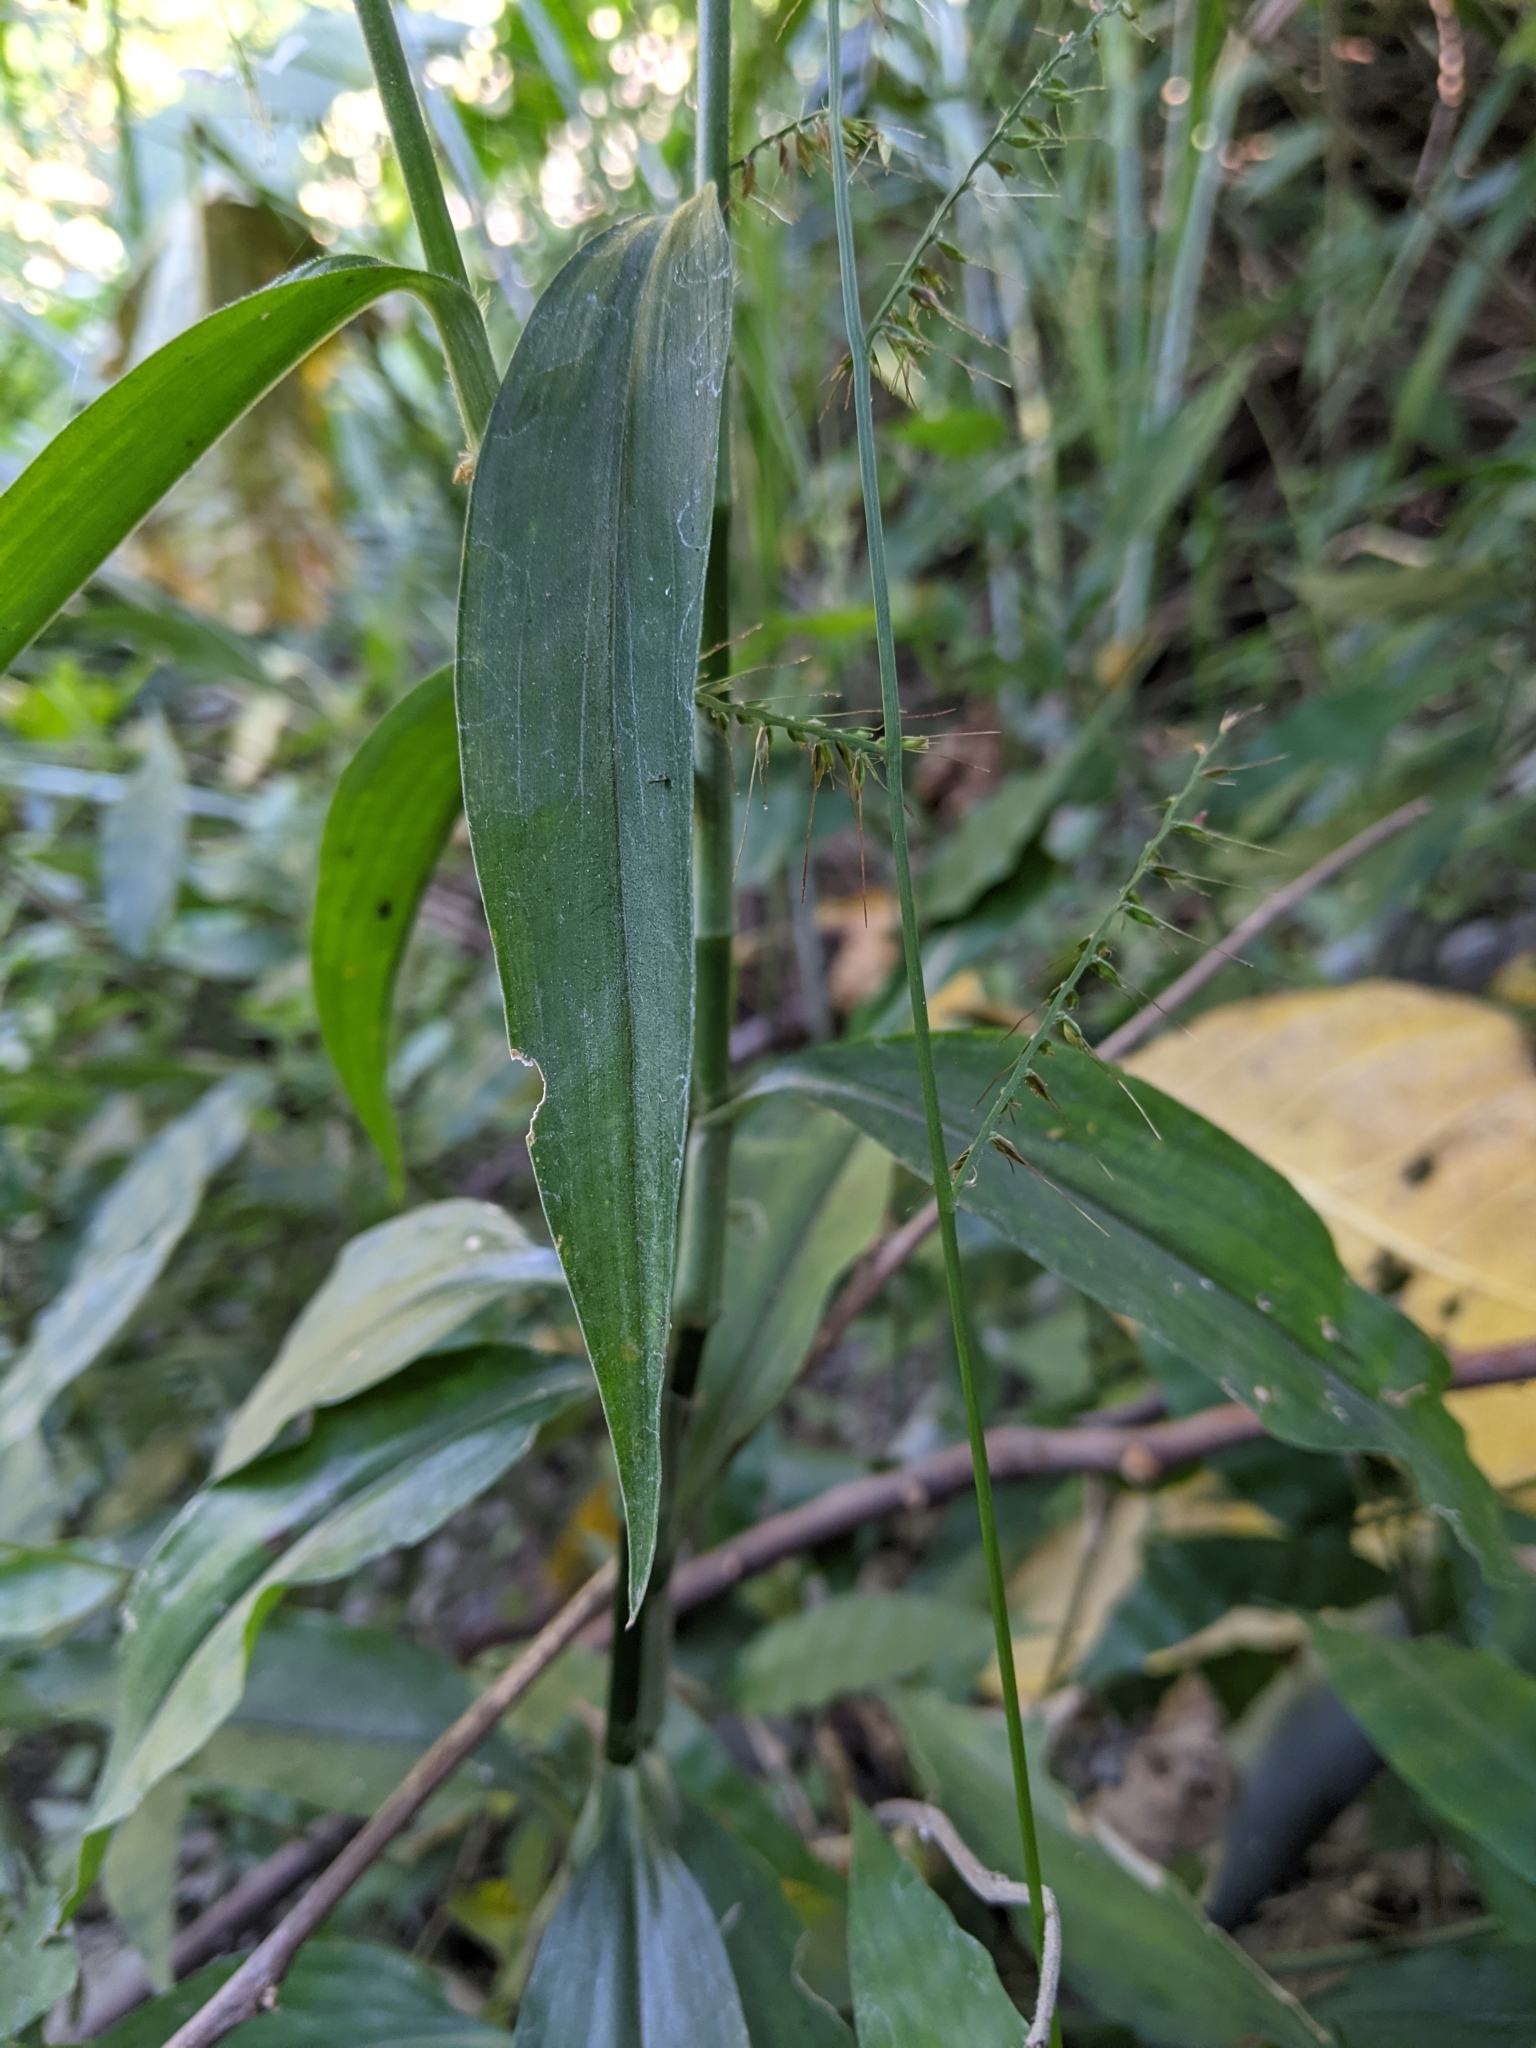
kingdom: Plantae
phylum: Tracheophyta
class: Liliopsida
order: Commelinales
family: Commelinaceae
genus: Rhopalephora
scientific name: Rhopalephora scaberrima
